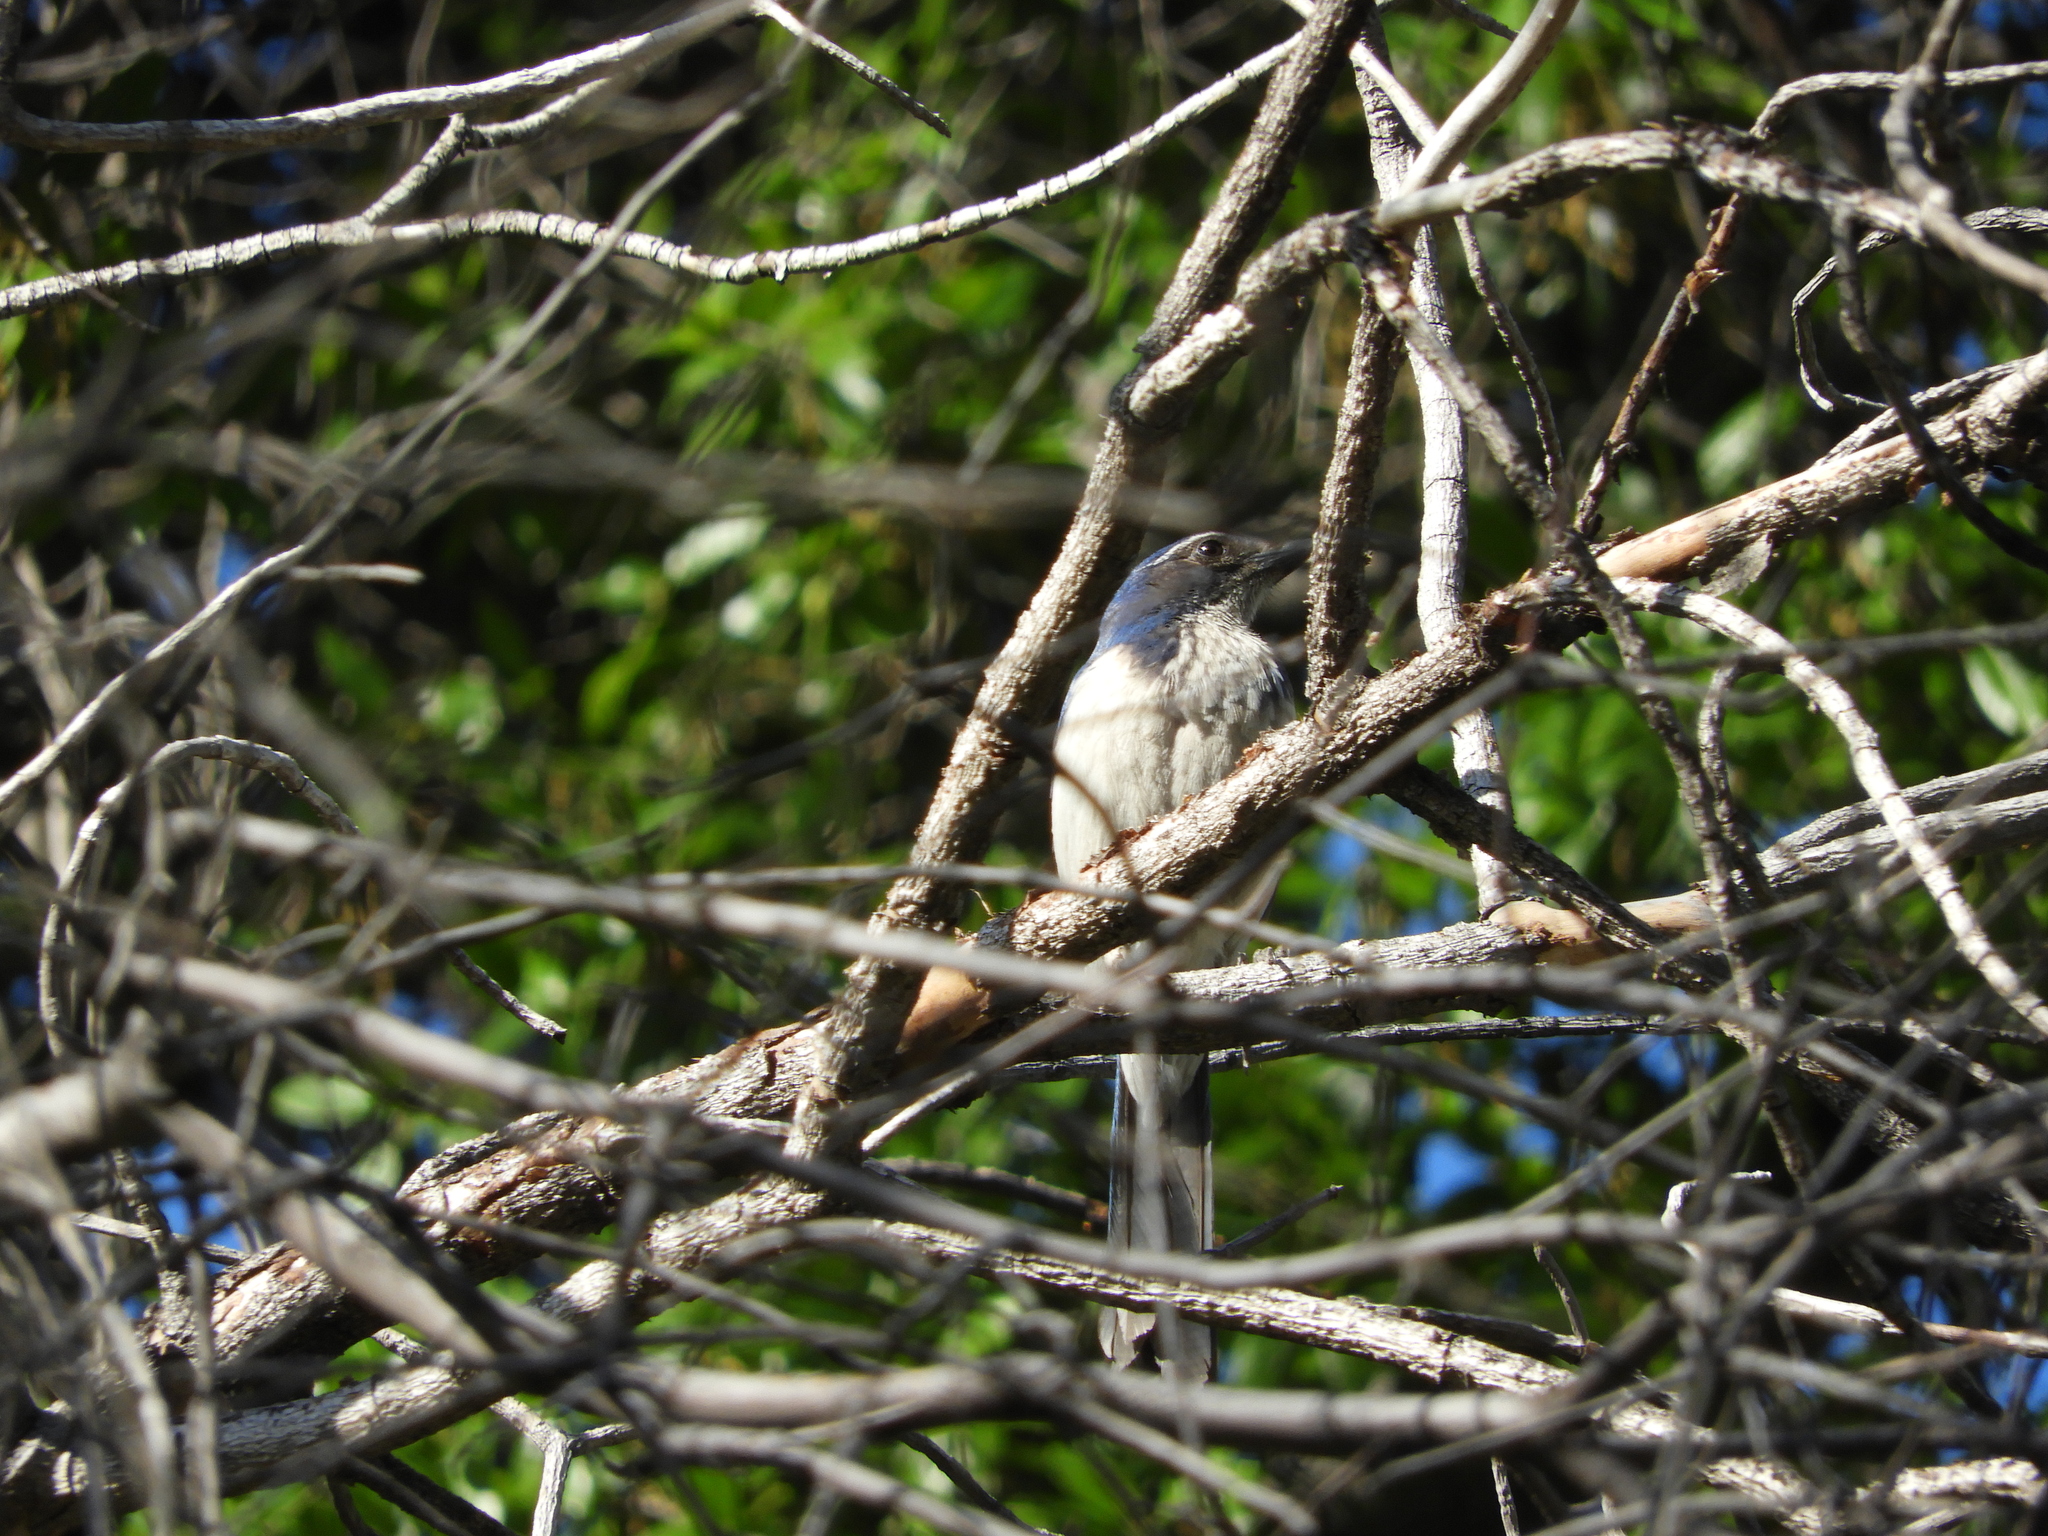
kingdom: Animalia
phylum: Chordata
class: Aves
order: Passeriformes
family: Corvidae
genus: Aphelocoma
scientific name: Aphelocoma californica
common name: California scrub-jay
